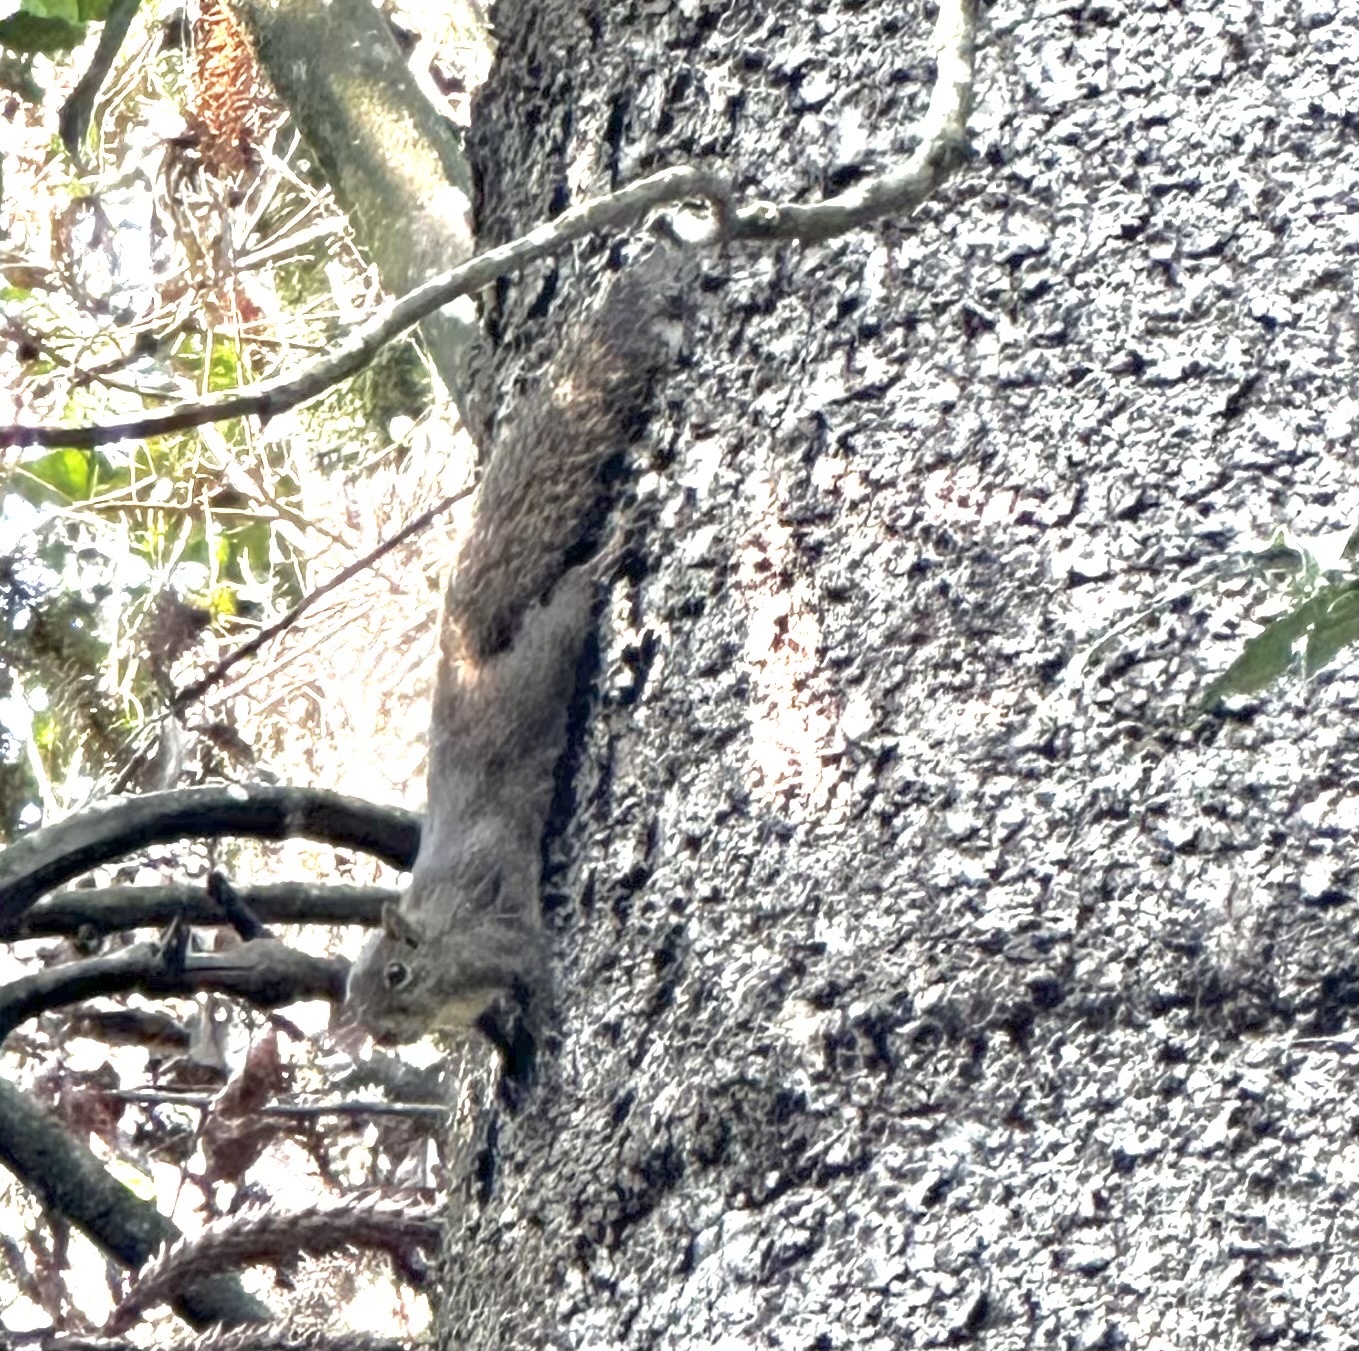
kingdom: Animalia
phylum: Chordata
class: Mammalia
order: Rodentia
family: Sciuridae
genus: Sciurus
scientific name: Sciurus aestuans
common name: Guianan squirrel
